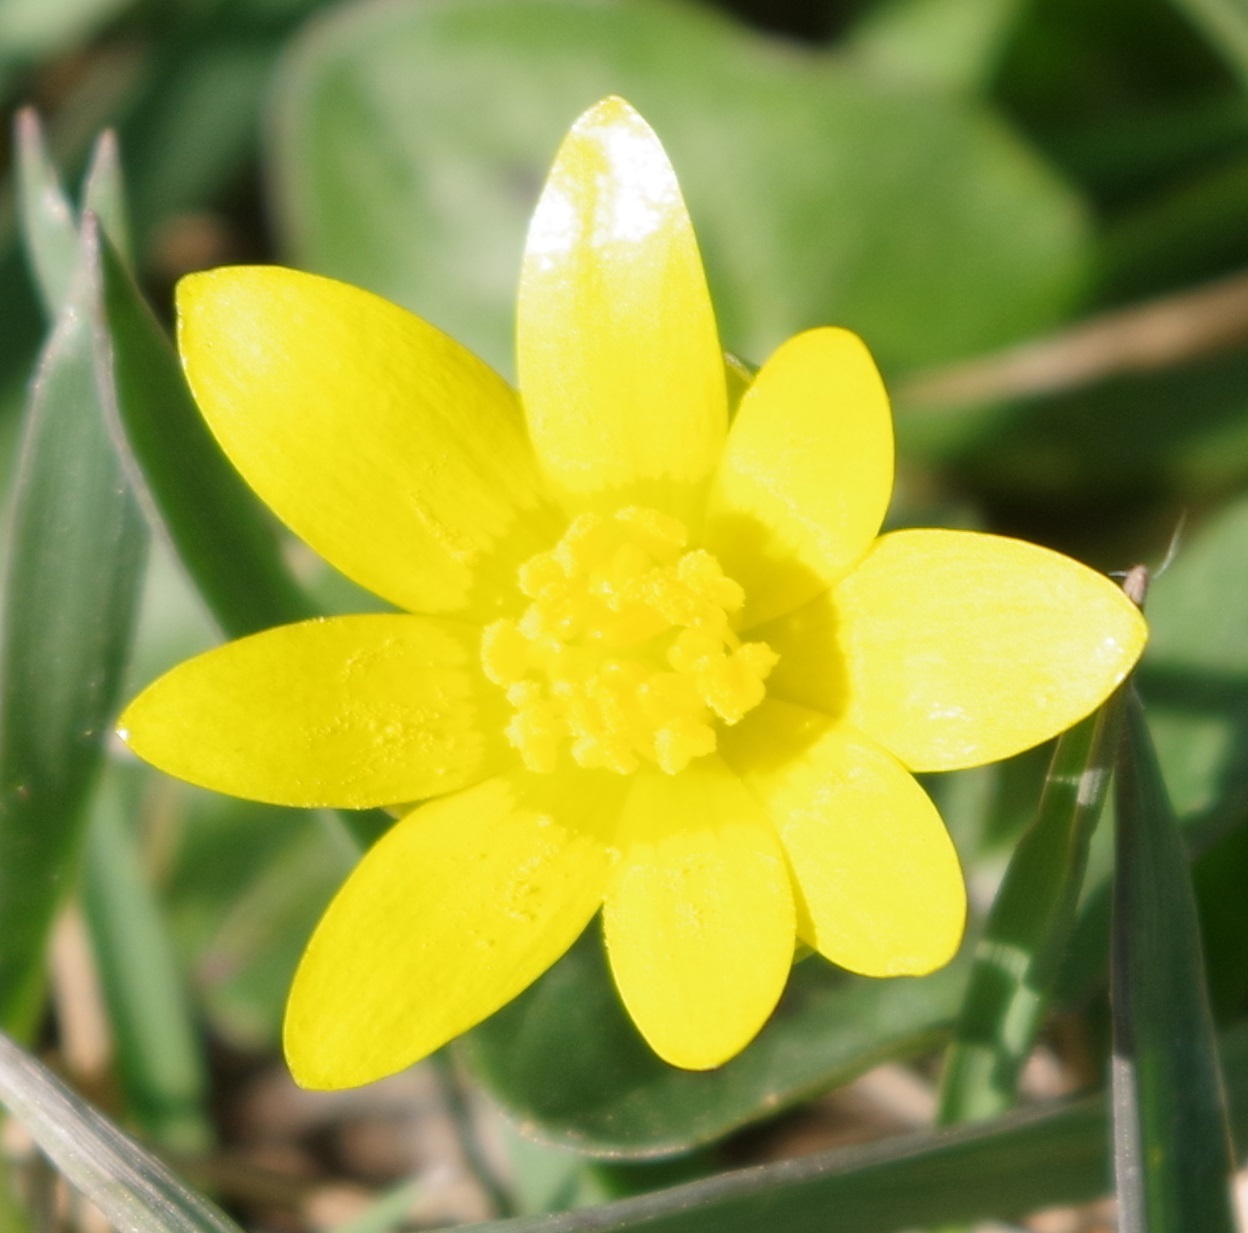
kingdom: Plantae
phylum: Tracheophyta
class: Magnoliopsida
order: Ranunculales
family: Ranunculaceae
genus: Ficaria
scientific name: Ficaria verna
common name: Lesser celandine
